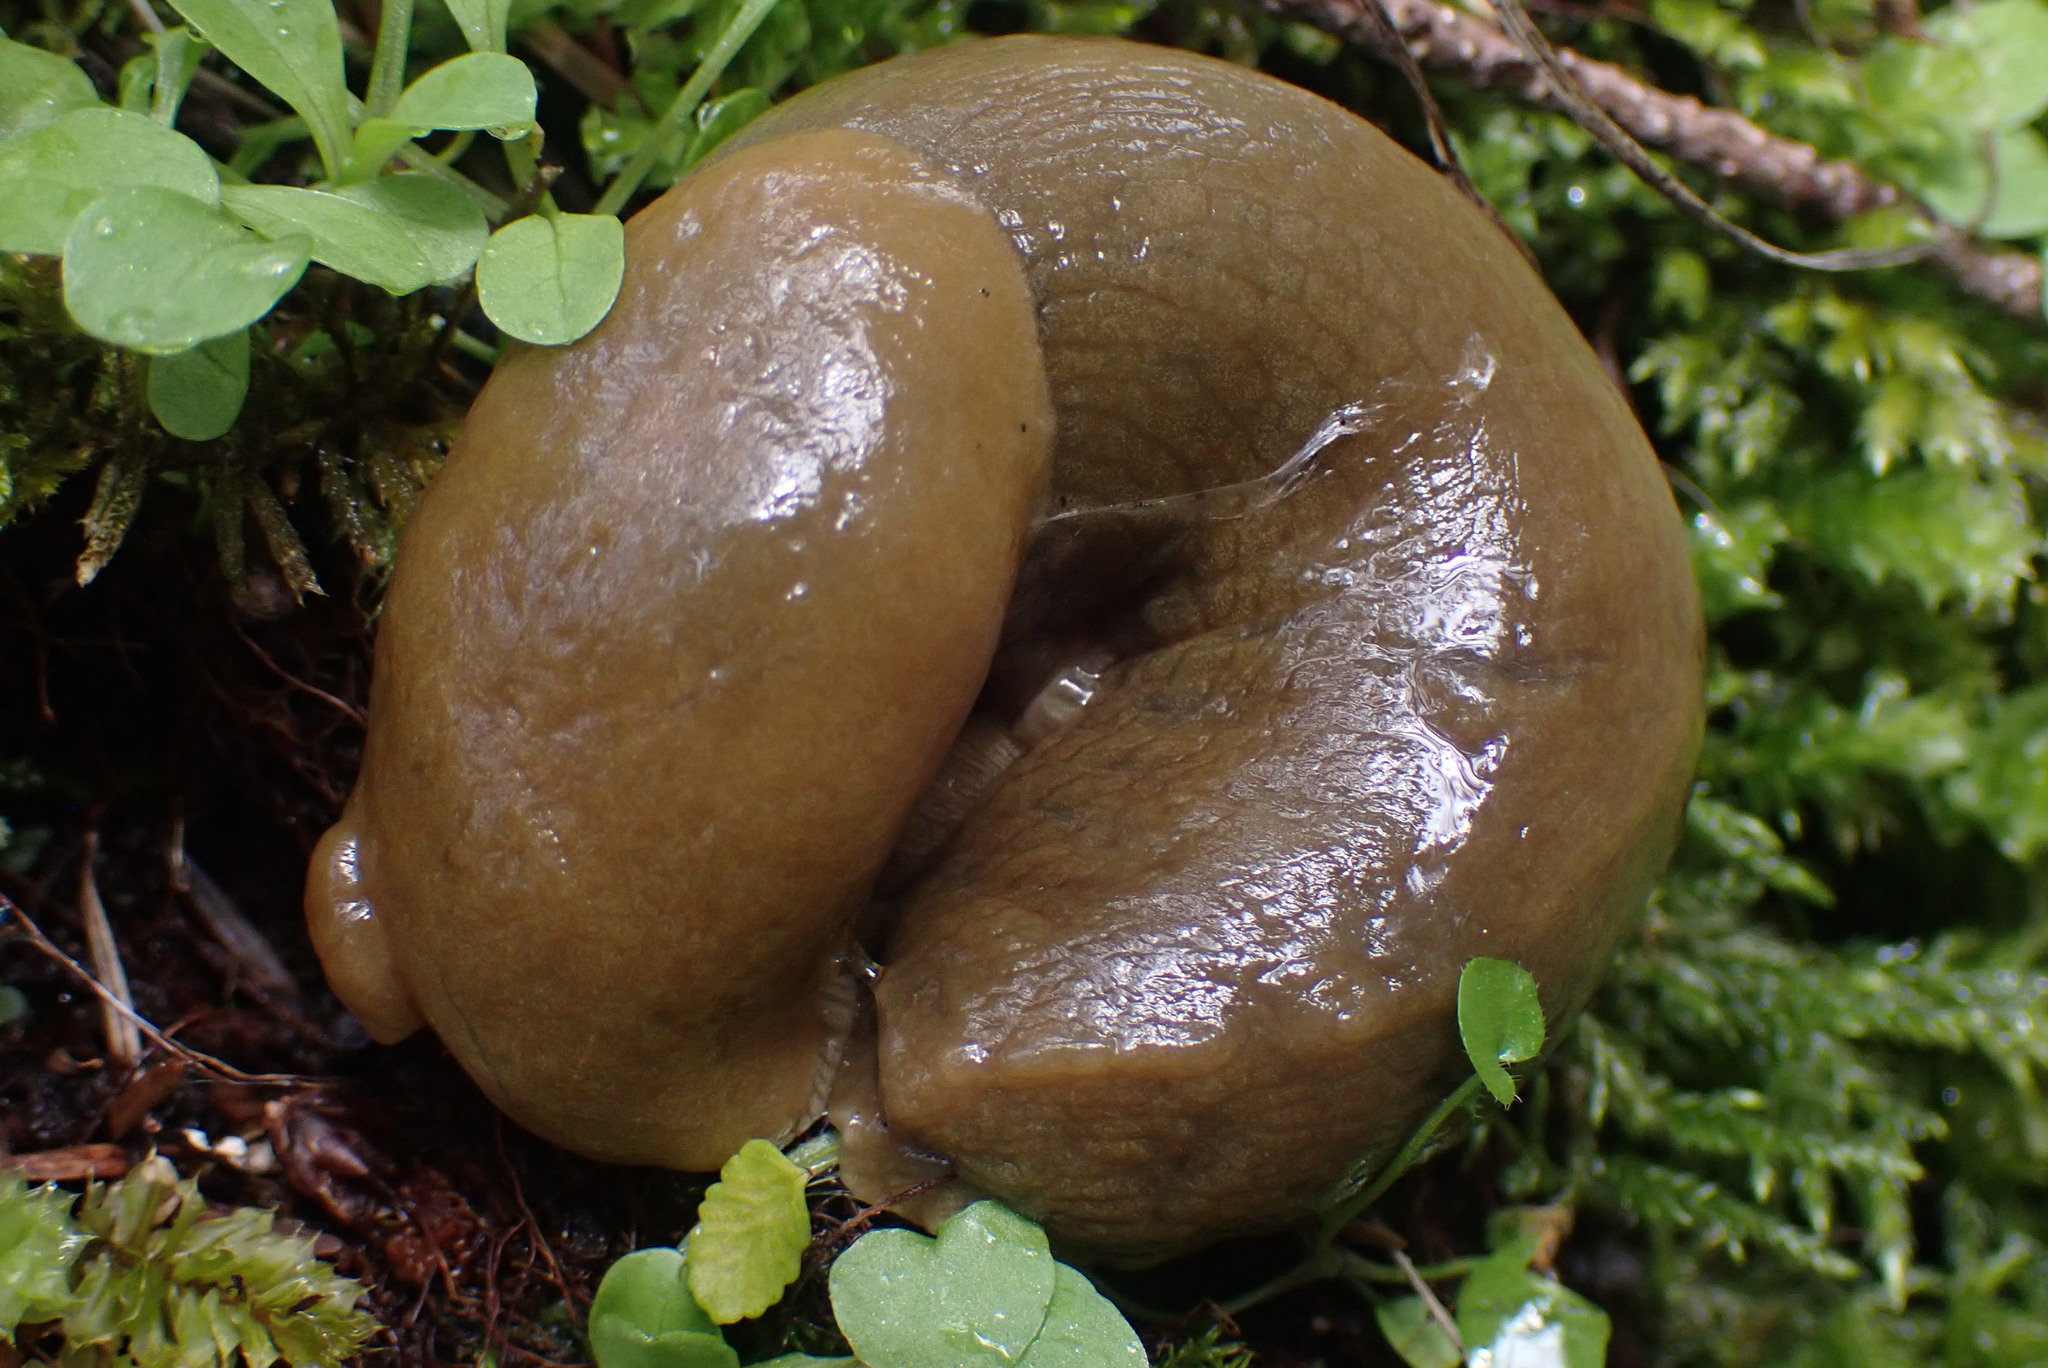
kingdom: Animalia
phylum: Mollusca
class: Gastropoda
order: Stylommatophora
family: Ariolimacidae
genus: Ariolimax
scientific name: Ariolimax columbianus
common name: Pacific banana slug
